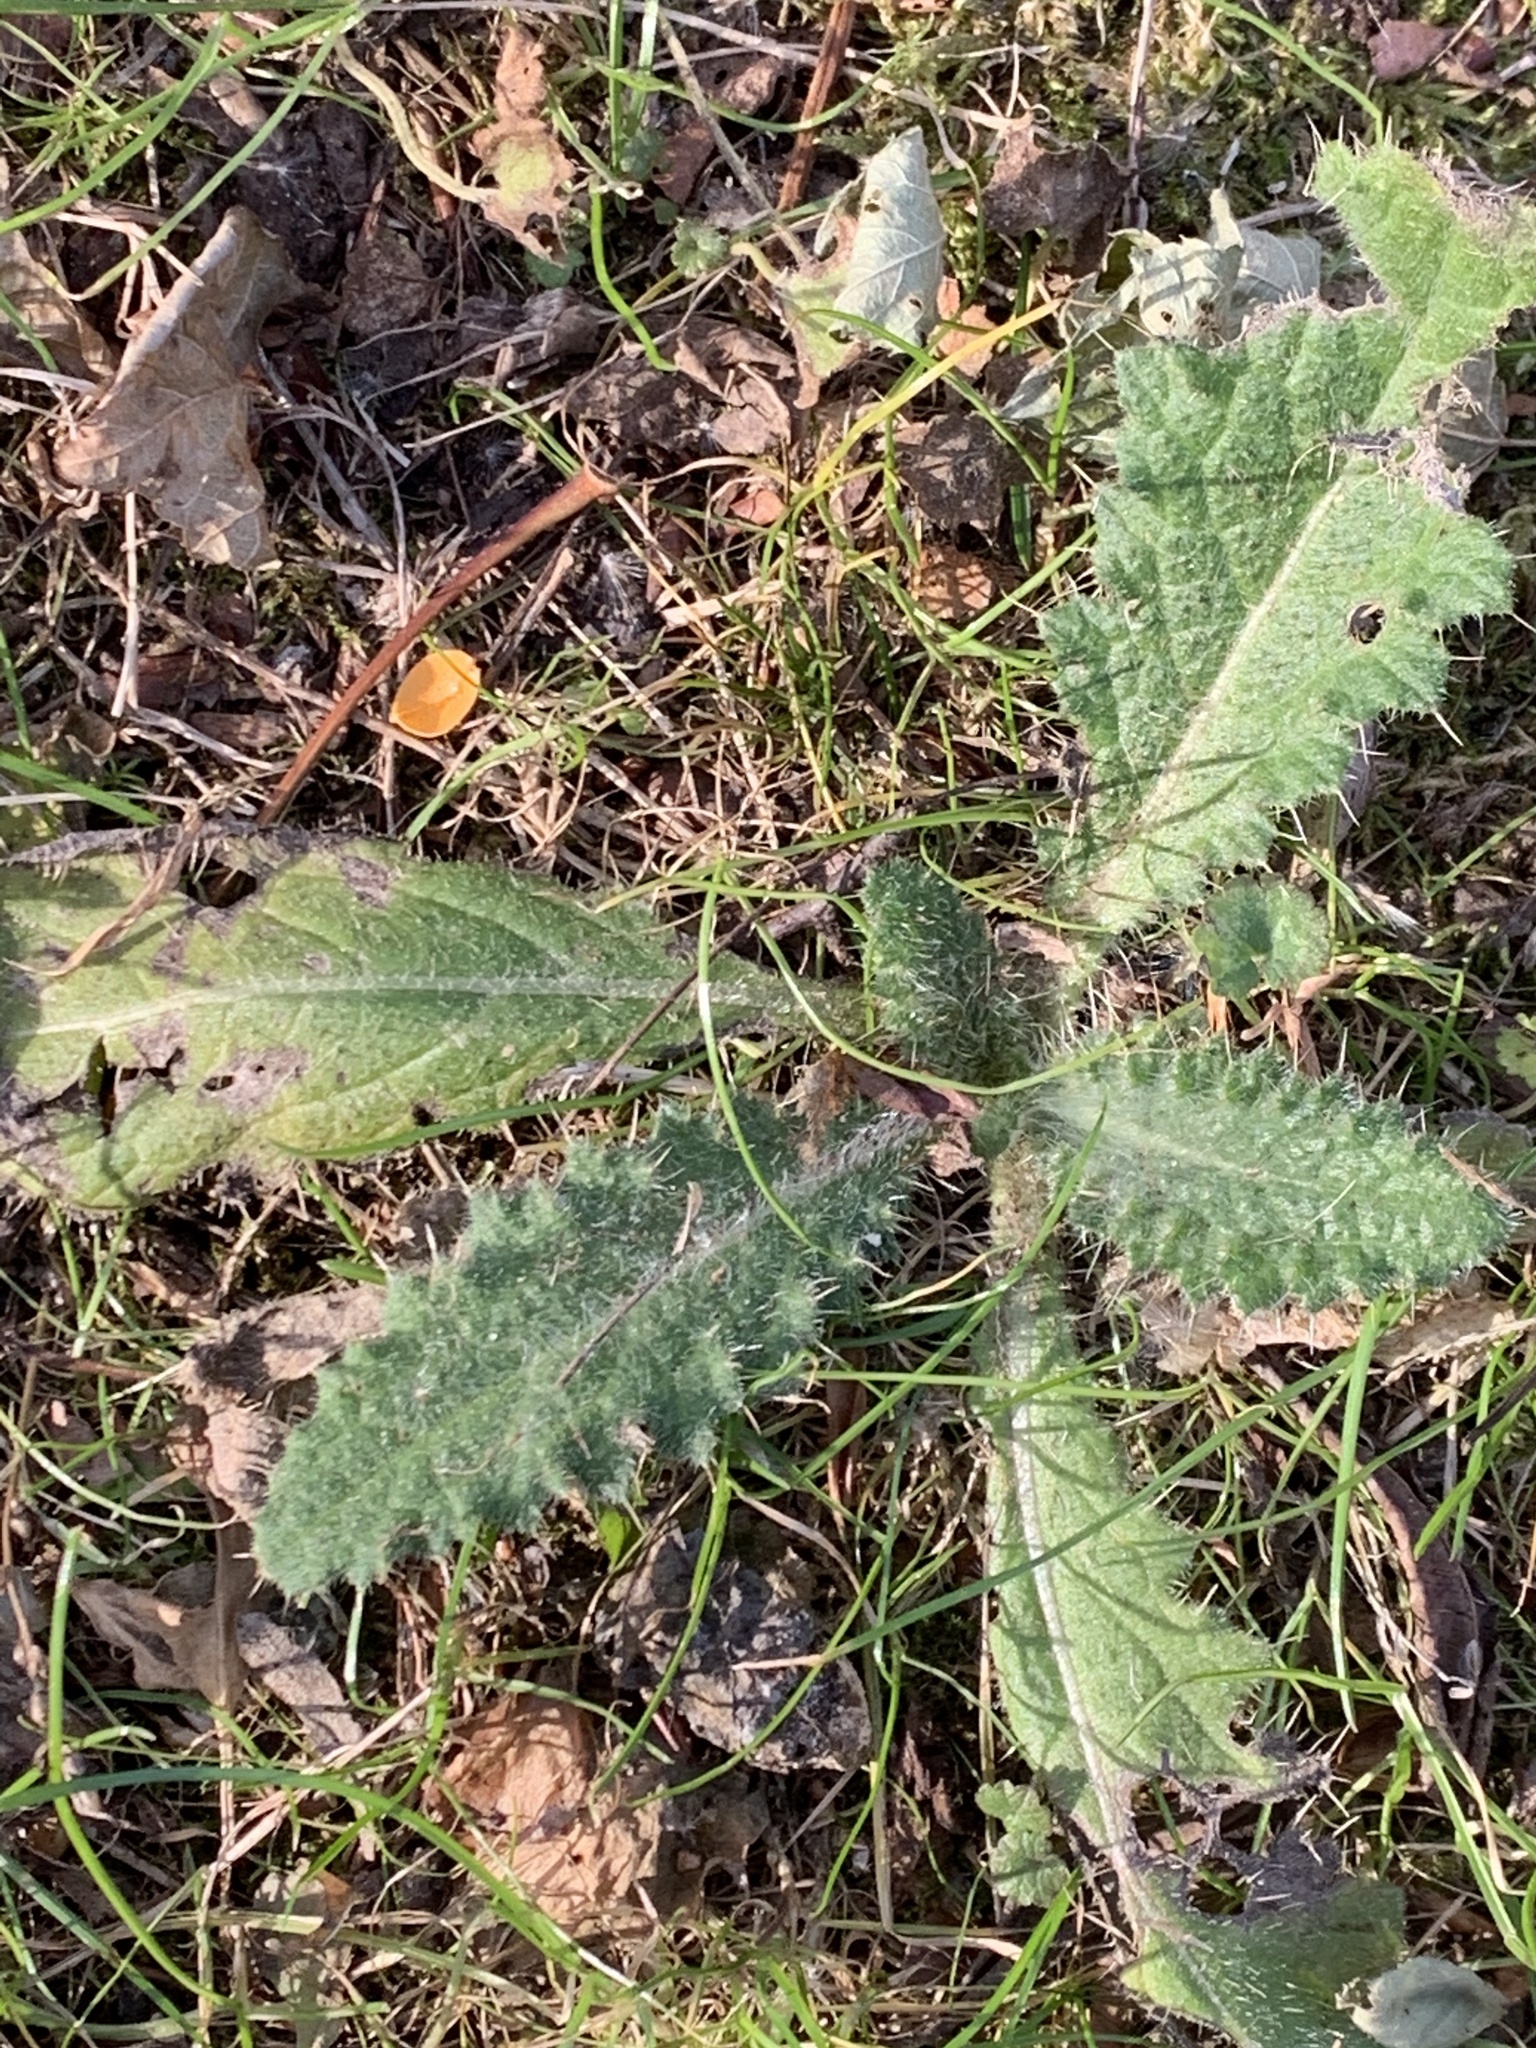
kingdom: Plantae
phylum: Tracheophyta
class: Magnoliopsida
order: Asterales
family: Asteraceae
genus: Cirsium
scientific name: Cirsium vulgare
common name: Bull thistle
